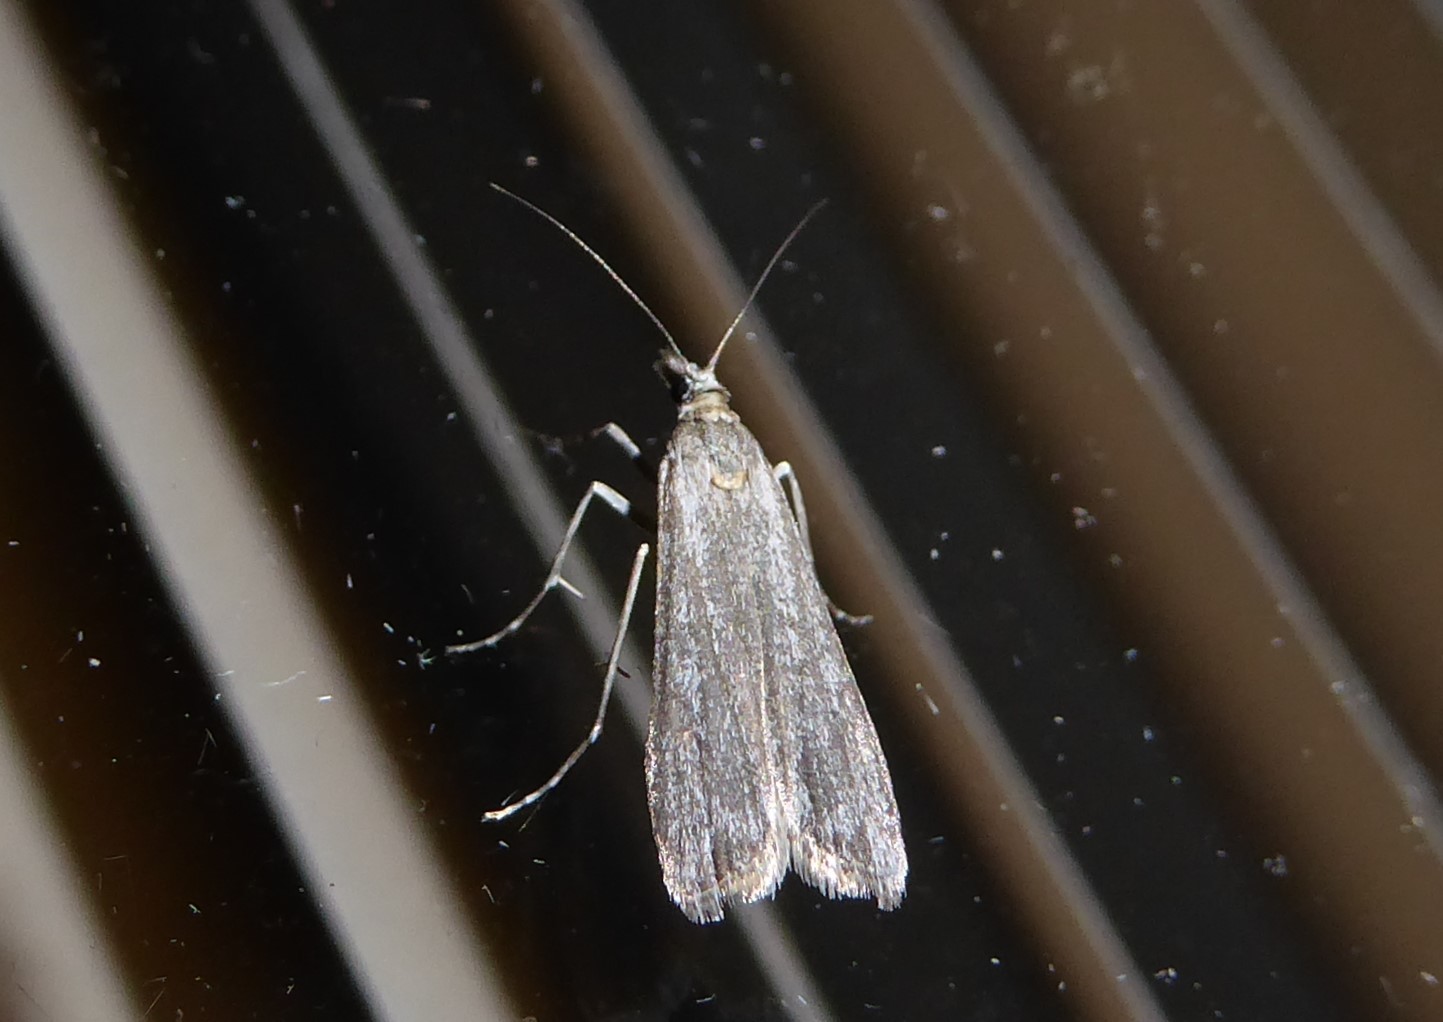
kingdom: Animalia
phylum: Arthropoda
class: Insecta
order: Lepidoptera
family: Crambidae
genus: Eudonia
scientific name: Eudonia leptalea
